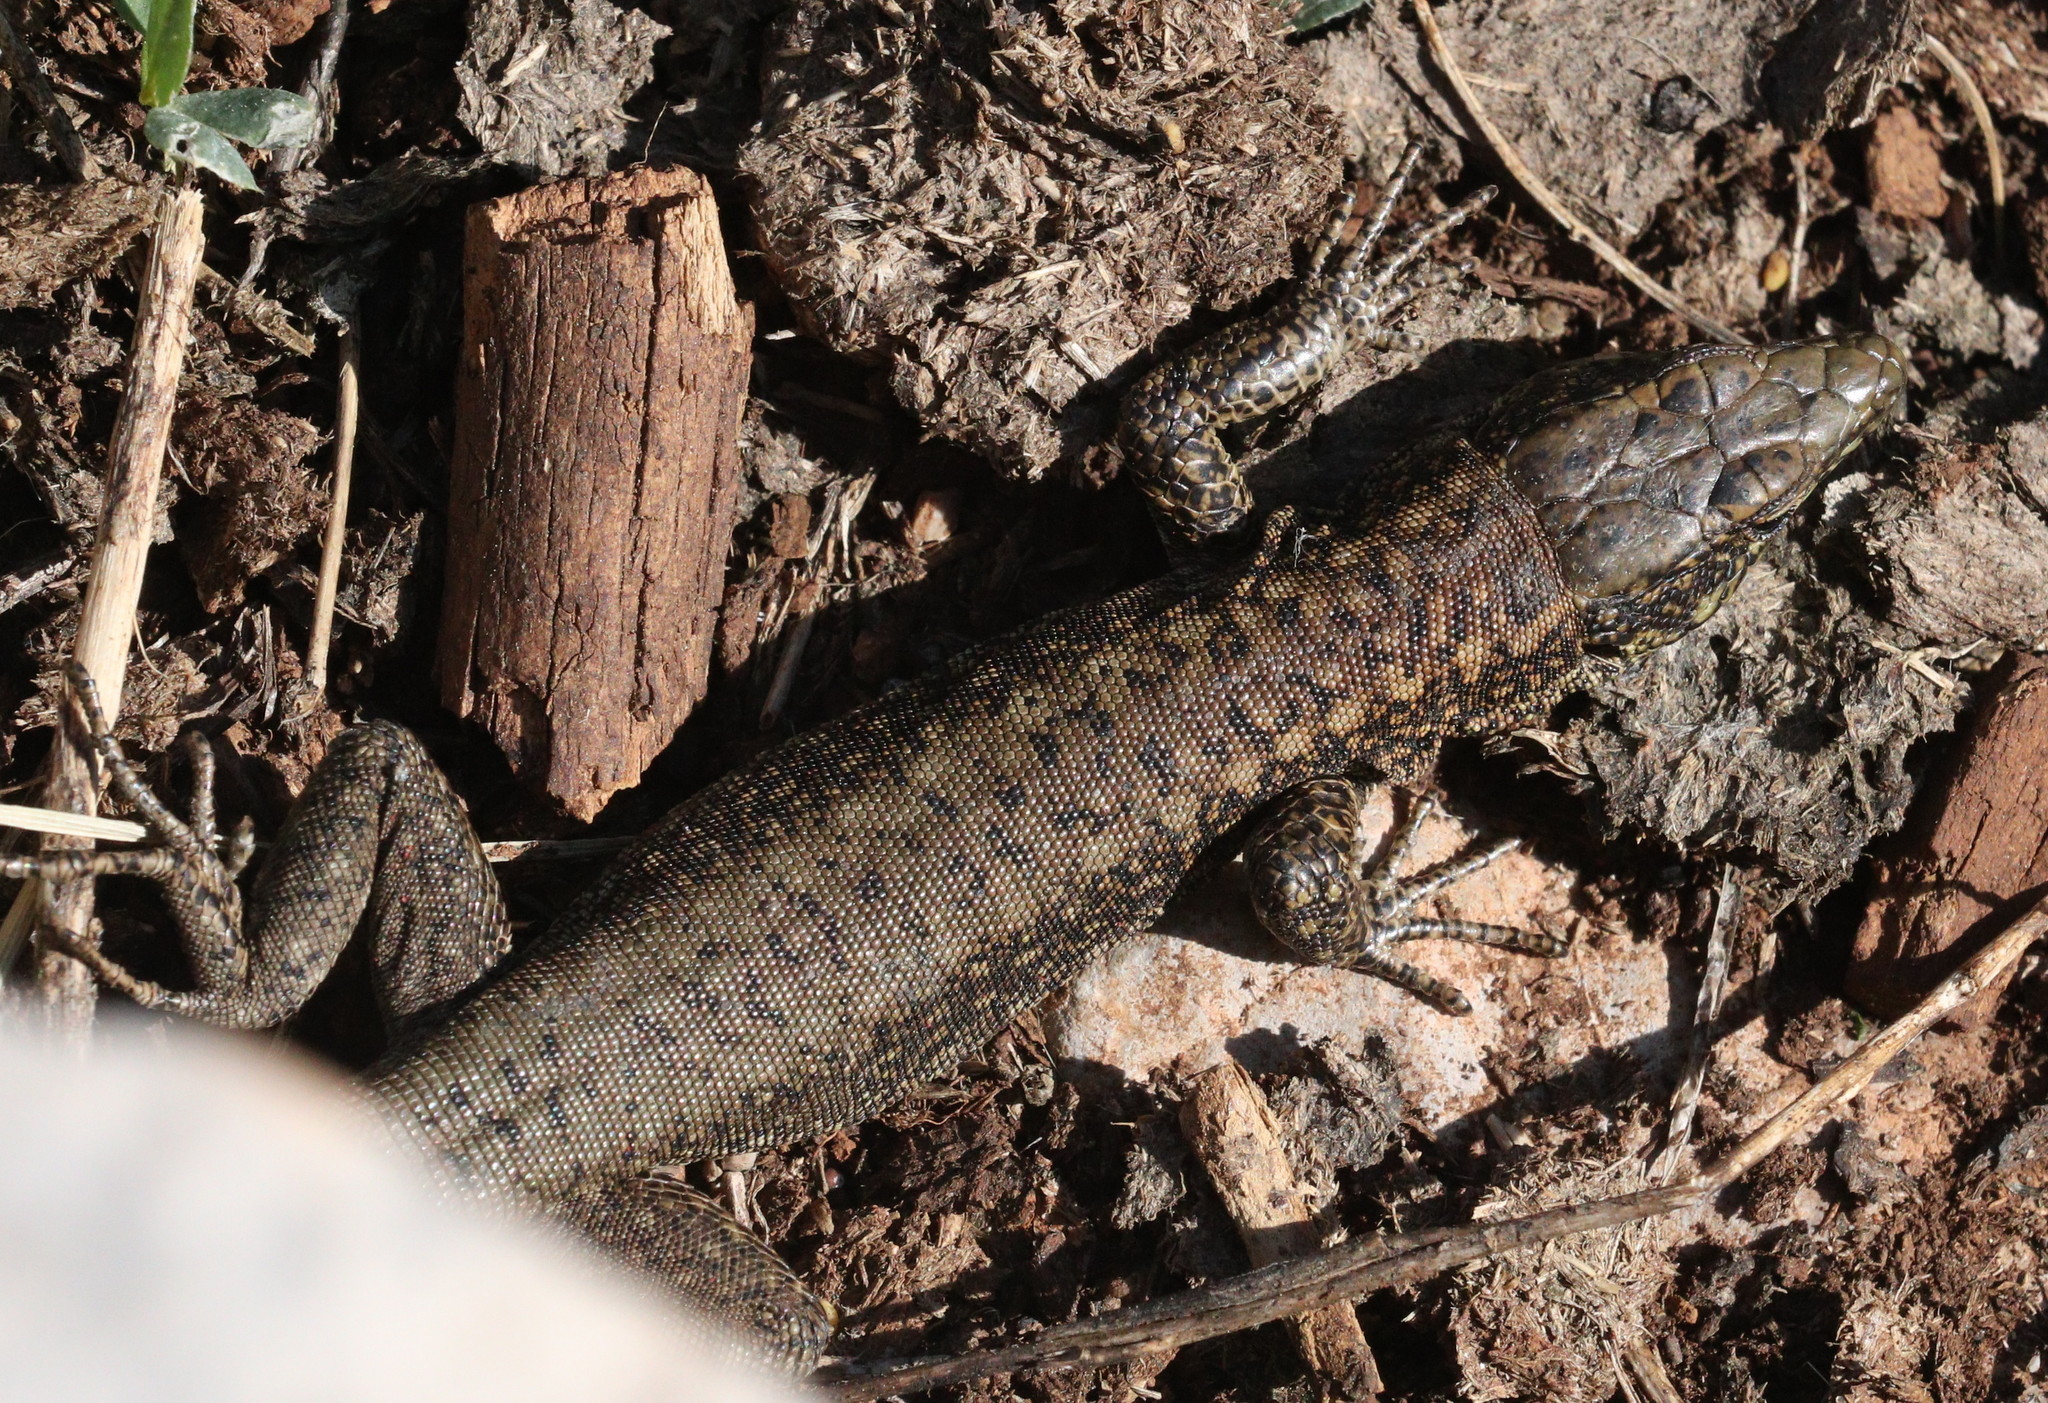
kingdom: Animalia
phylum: Chordata
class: Aves
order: Passeriformes
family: Turdidae
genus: Turdus
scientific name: Turdus viscivorus
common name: Mistle thrush
